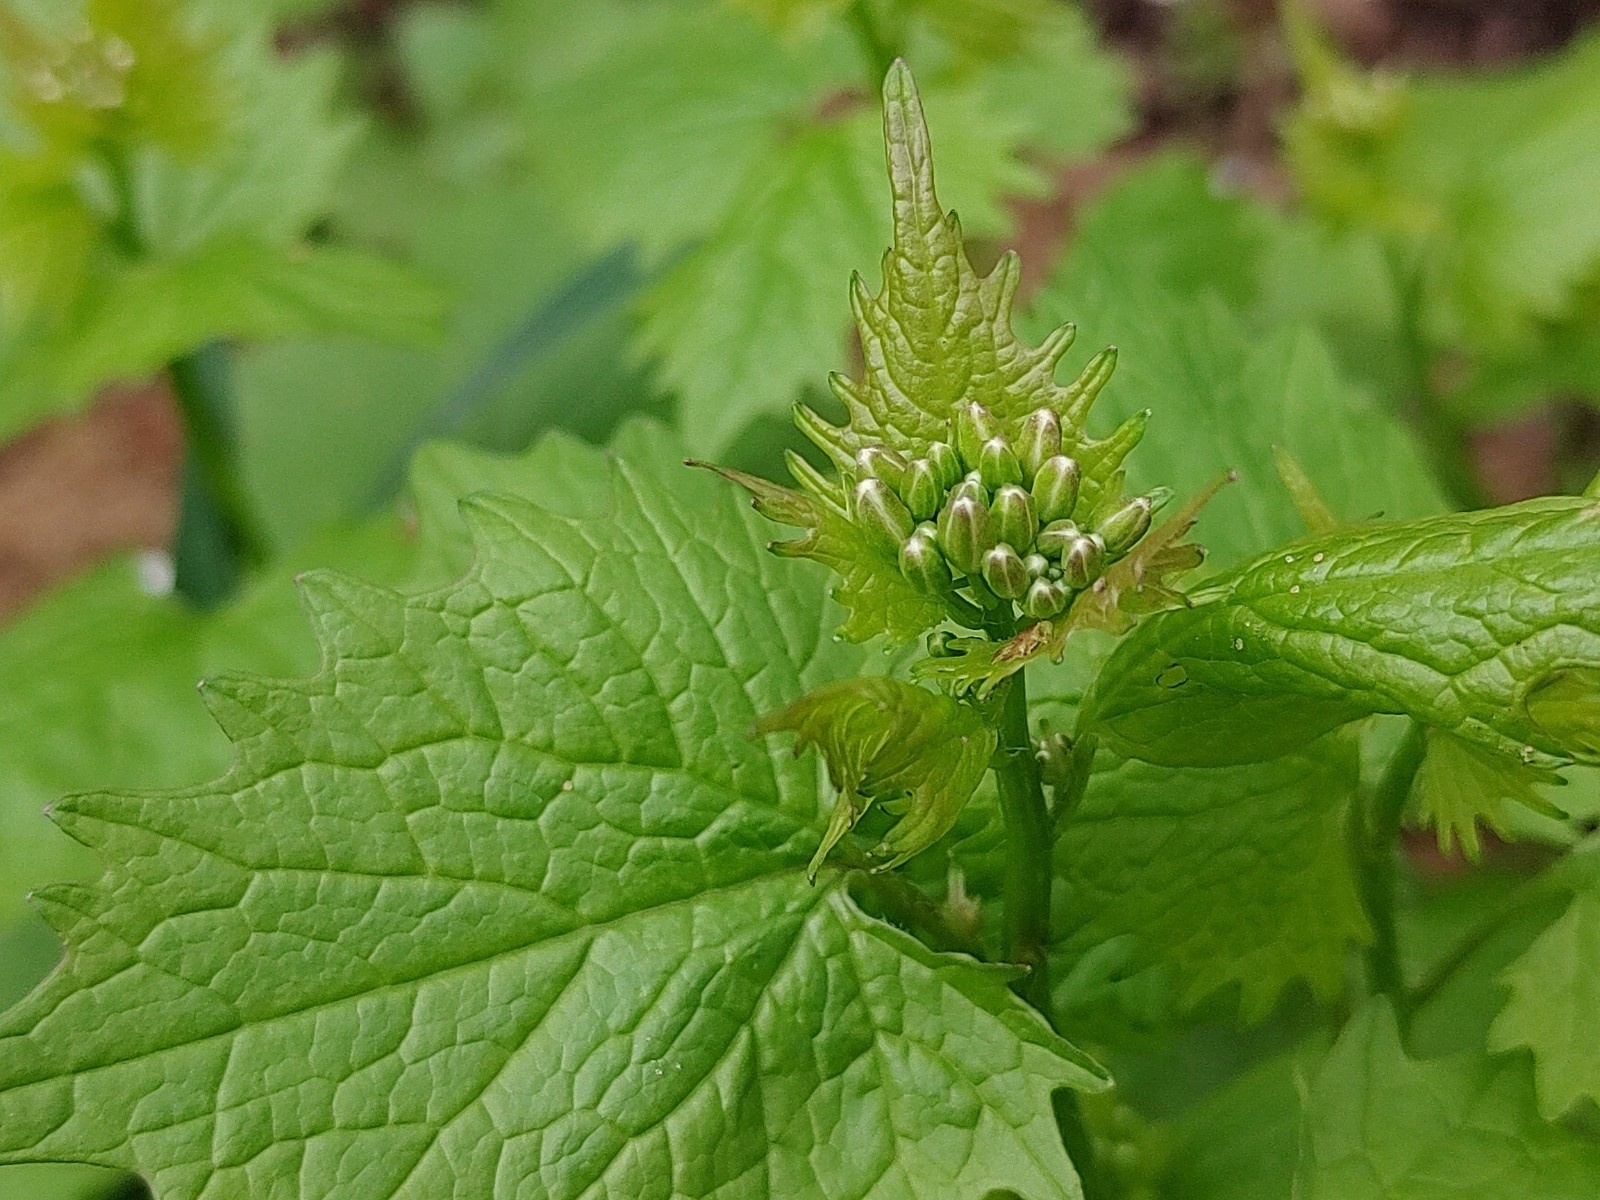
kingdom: Plantae
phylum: Tracheophyta
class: Magnoliopsida
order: Brassicales
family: Brassicaceae
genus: Alliaria
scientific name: Alliaria petiolata
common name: Garlic mustard
